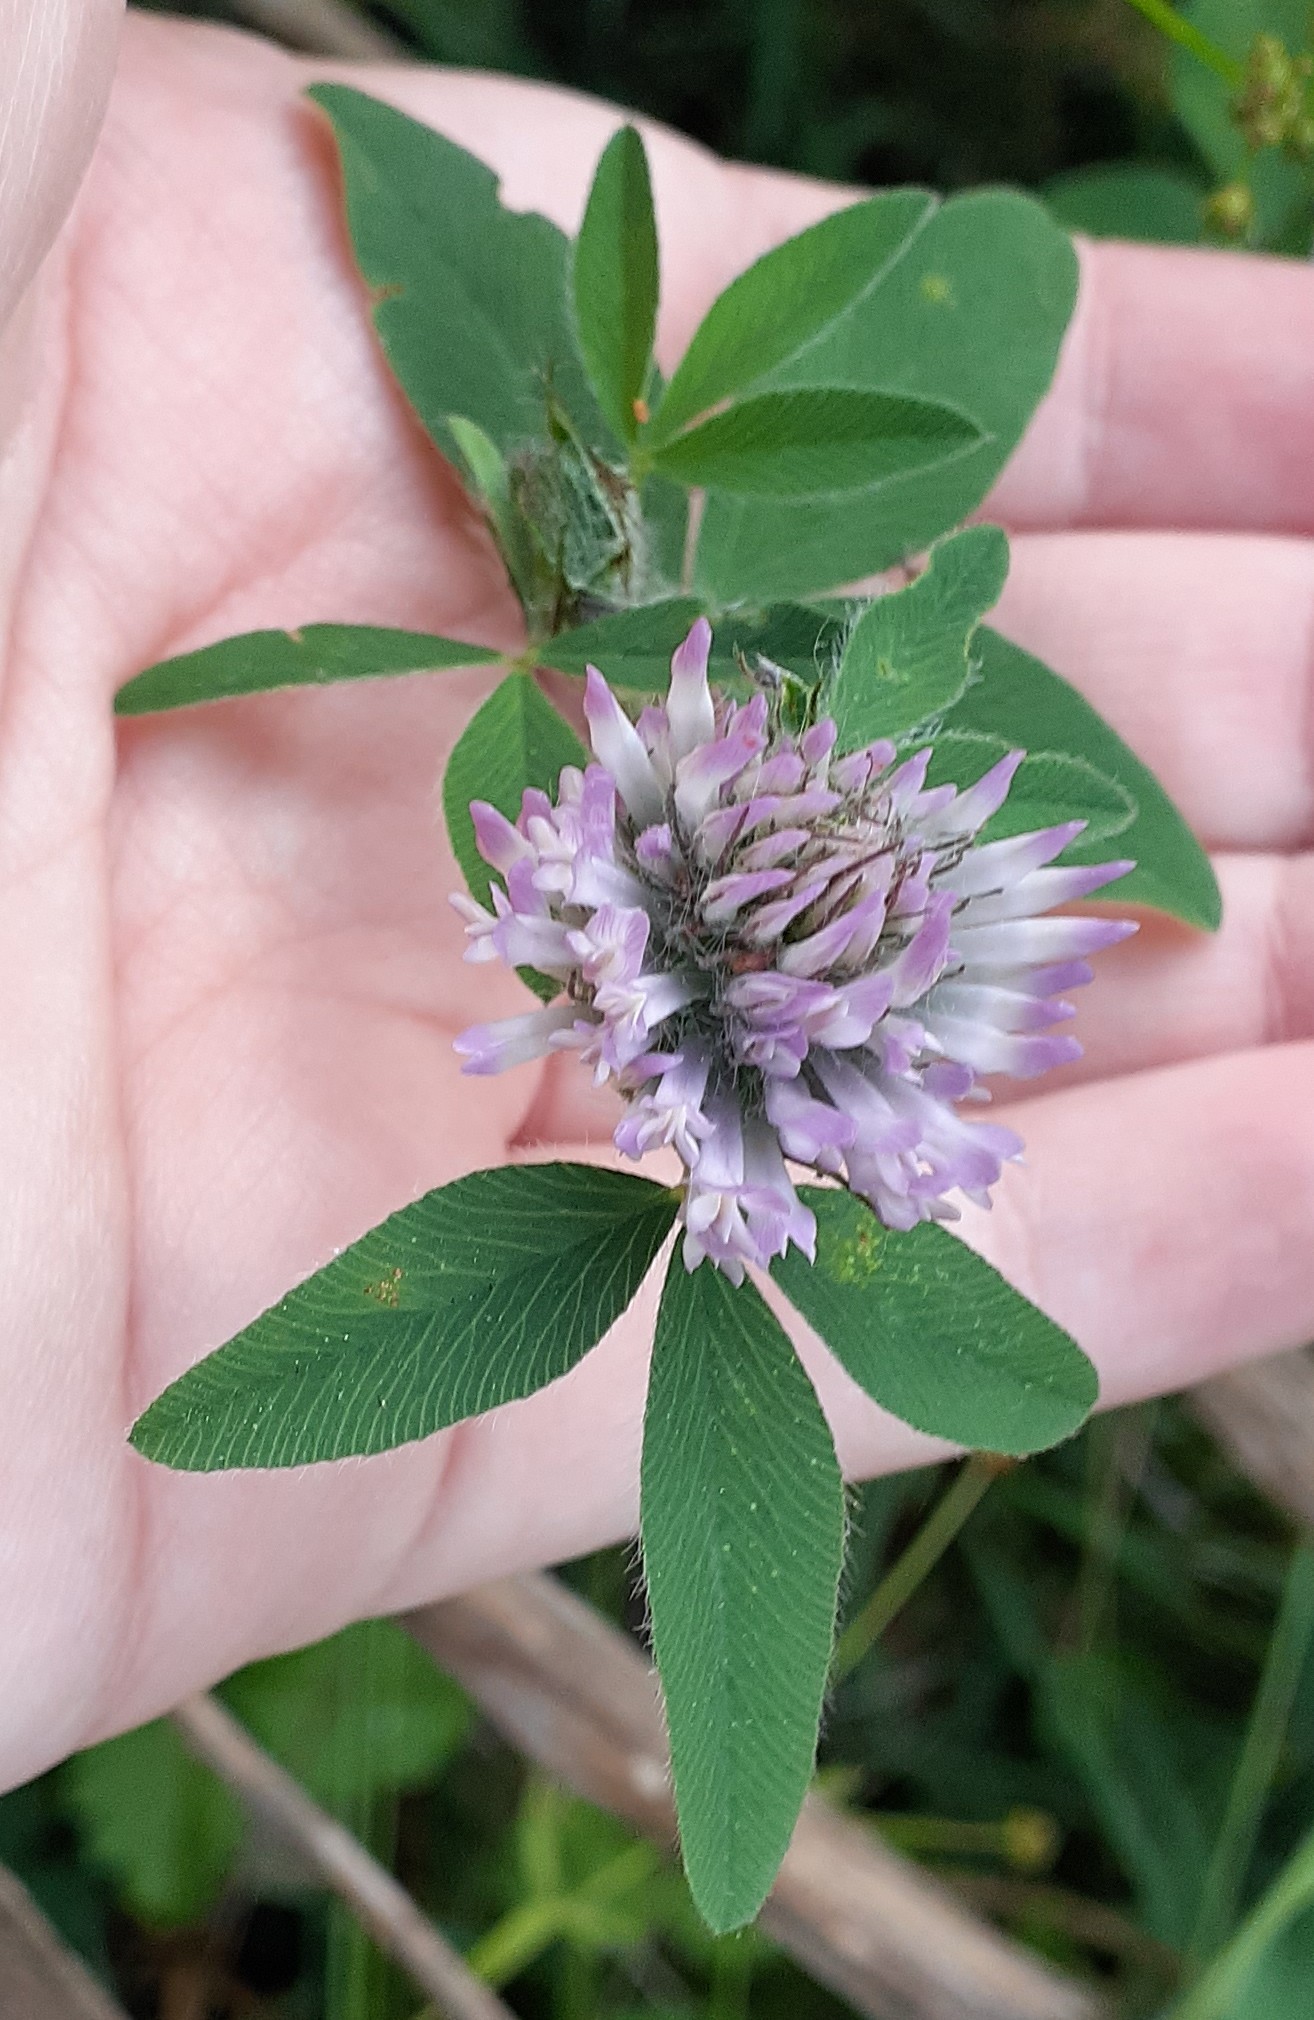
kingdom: Plantae
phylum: Tracheophyta
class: Magnoliopsida
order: Fabales
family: Fabaceae
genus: Trifolium
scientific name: Trifolium pratense
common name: Red clover
